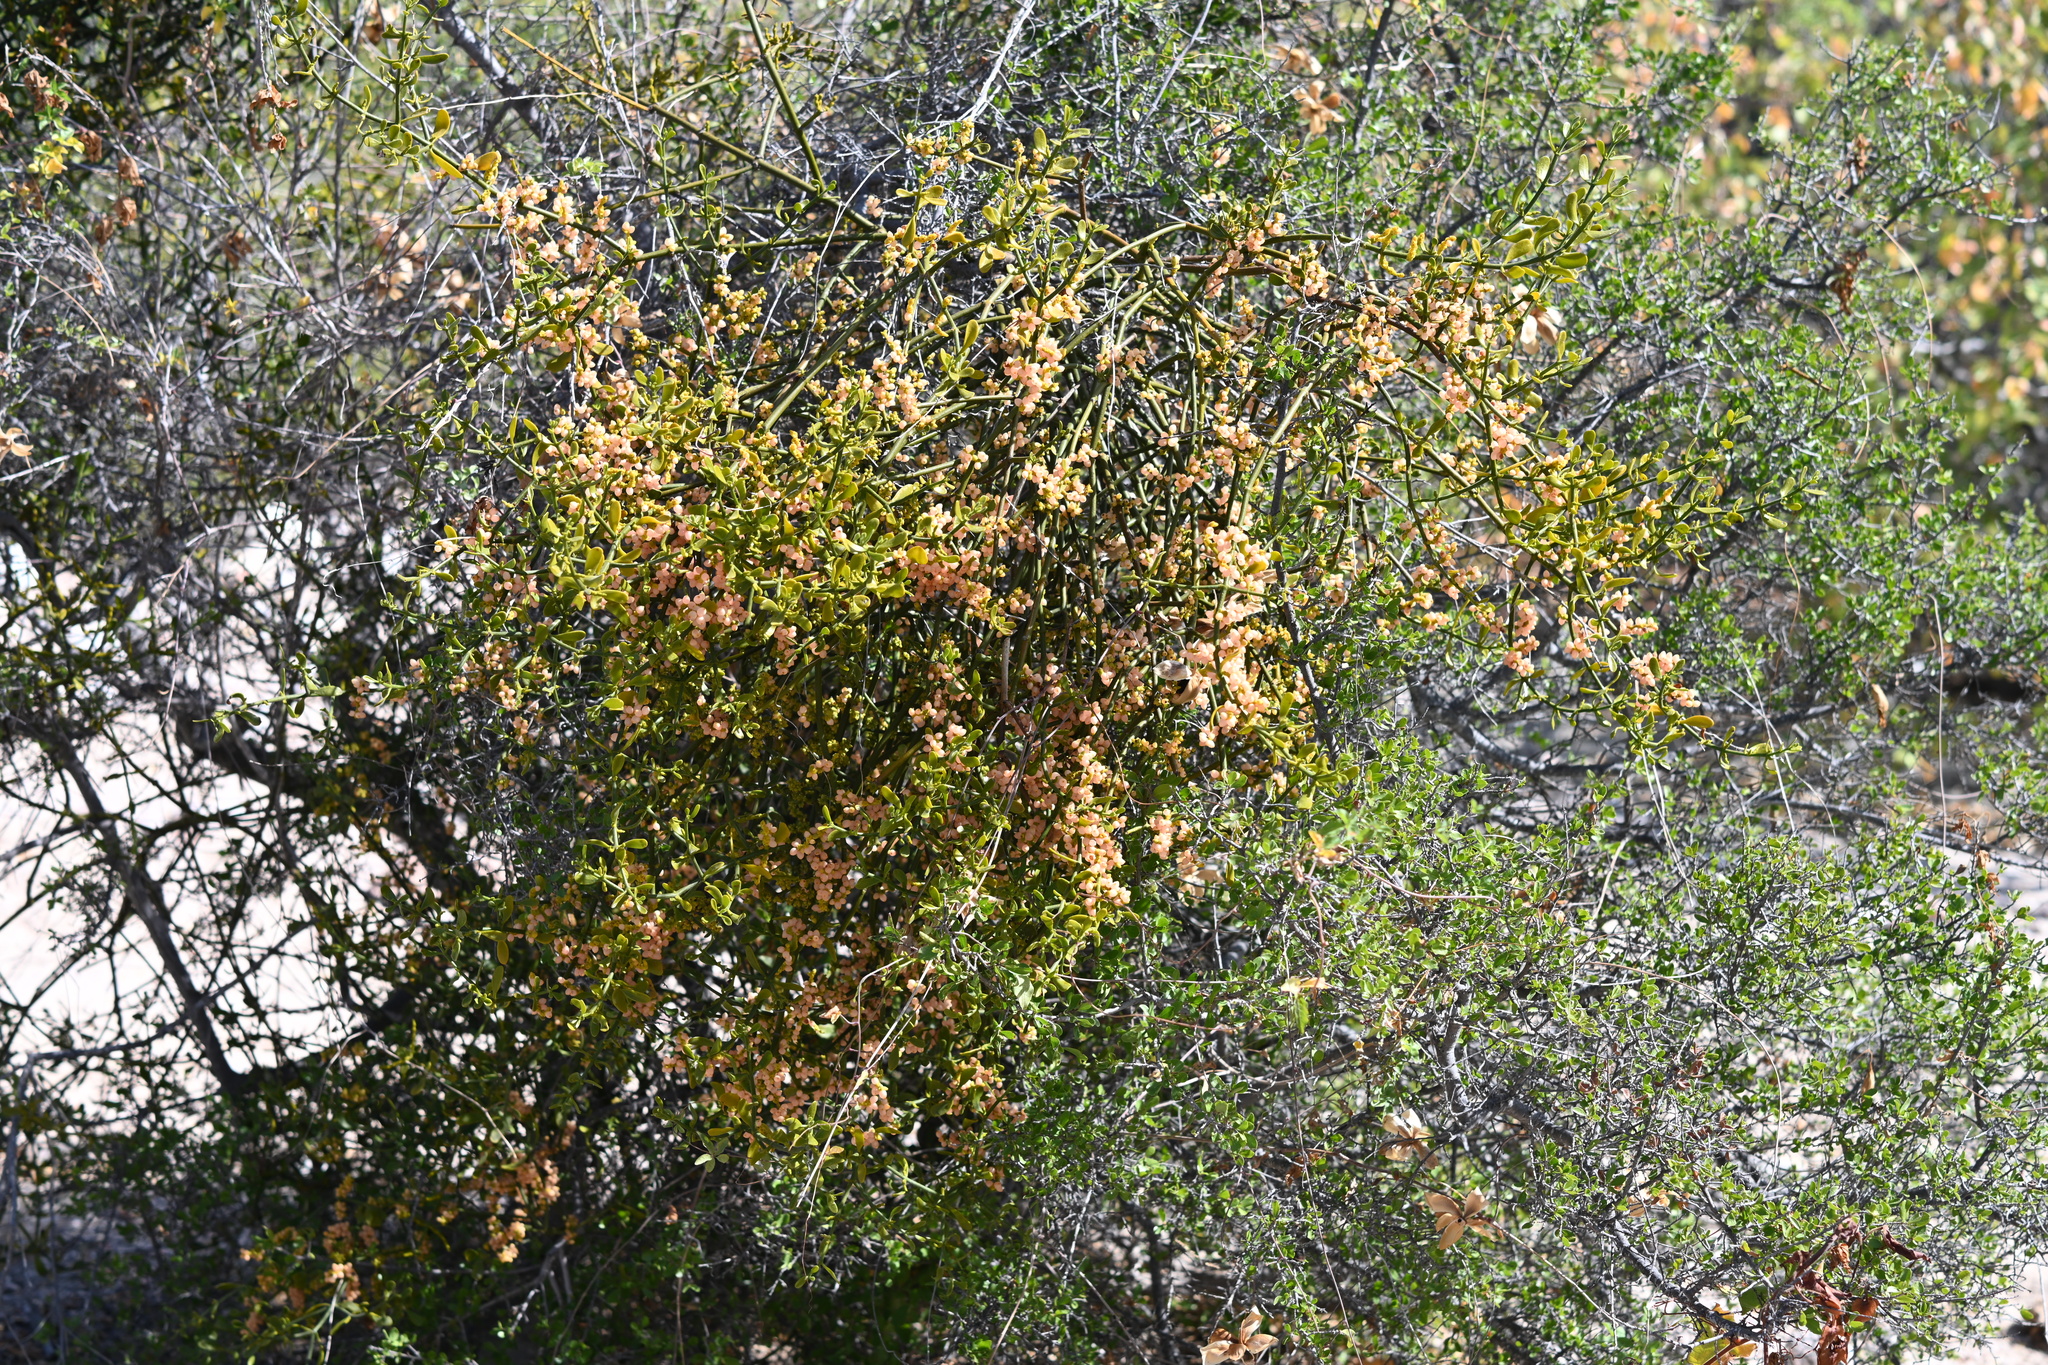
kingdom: Plantae
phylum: Tracheophyta
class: Magnoliopsida
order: Santalales
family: Viscaceae
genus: Phoradendron
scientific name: Phoradendron brachystachyum
